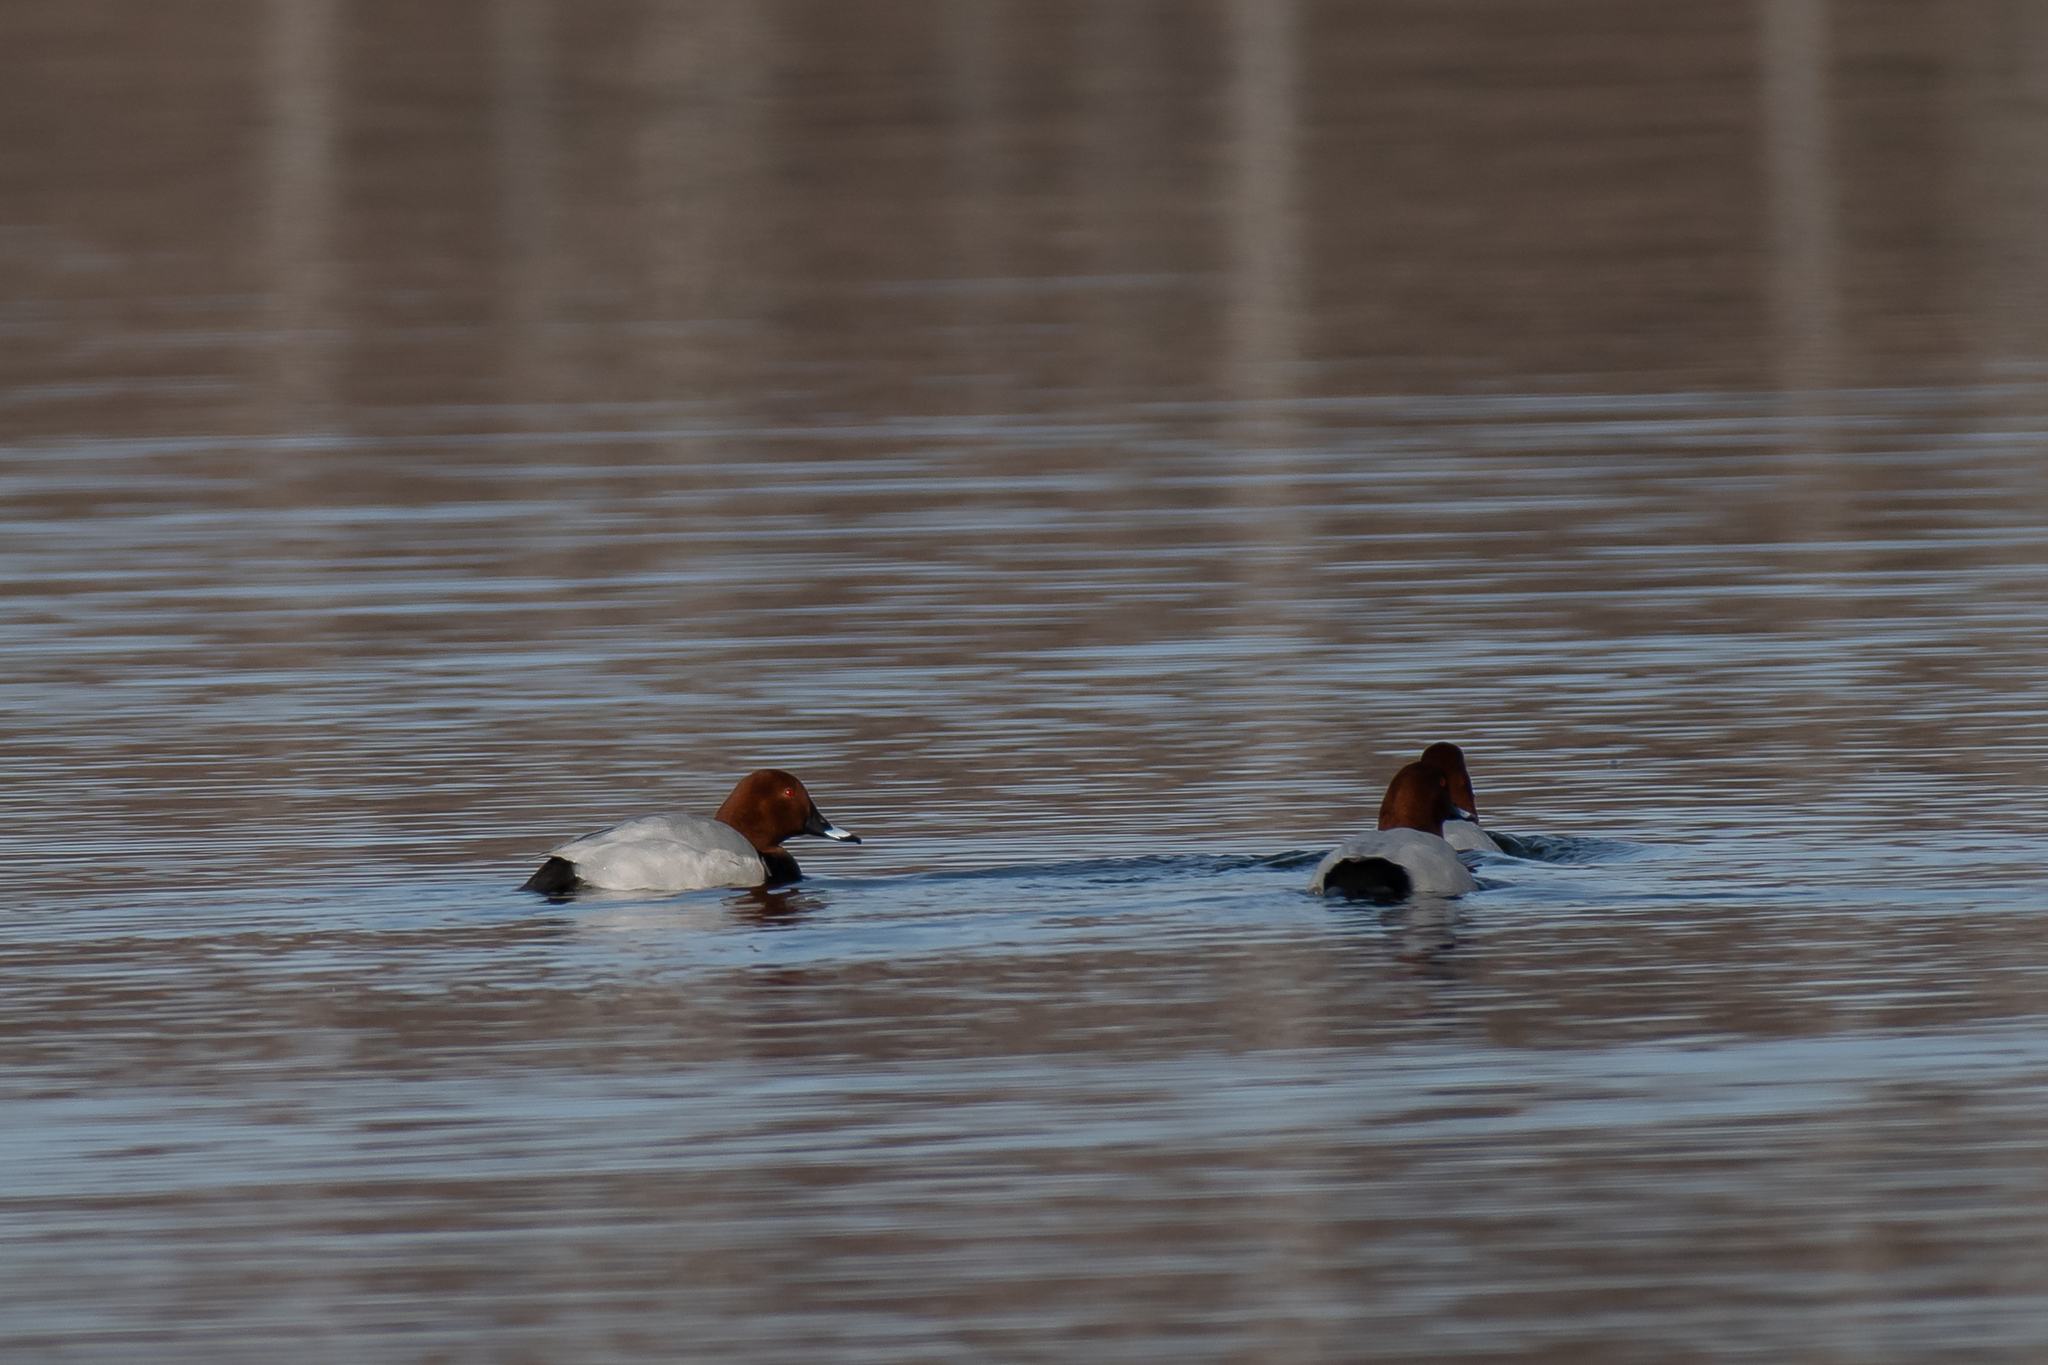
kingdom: Animalia
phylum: Chordata
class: Aves
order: Anseriformes
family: Anatidae
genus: Aythya
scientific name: Aythya ferina
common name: Common pochard
